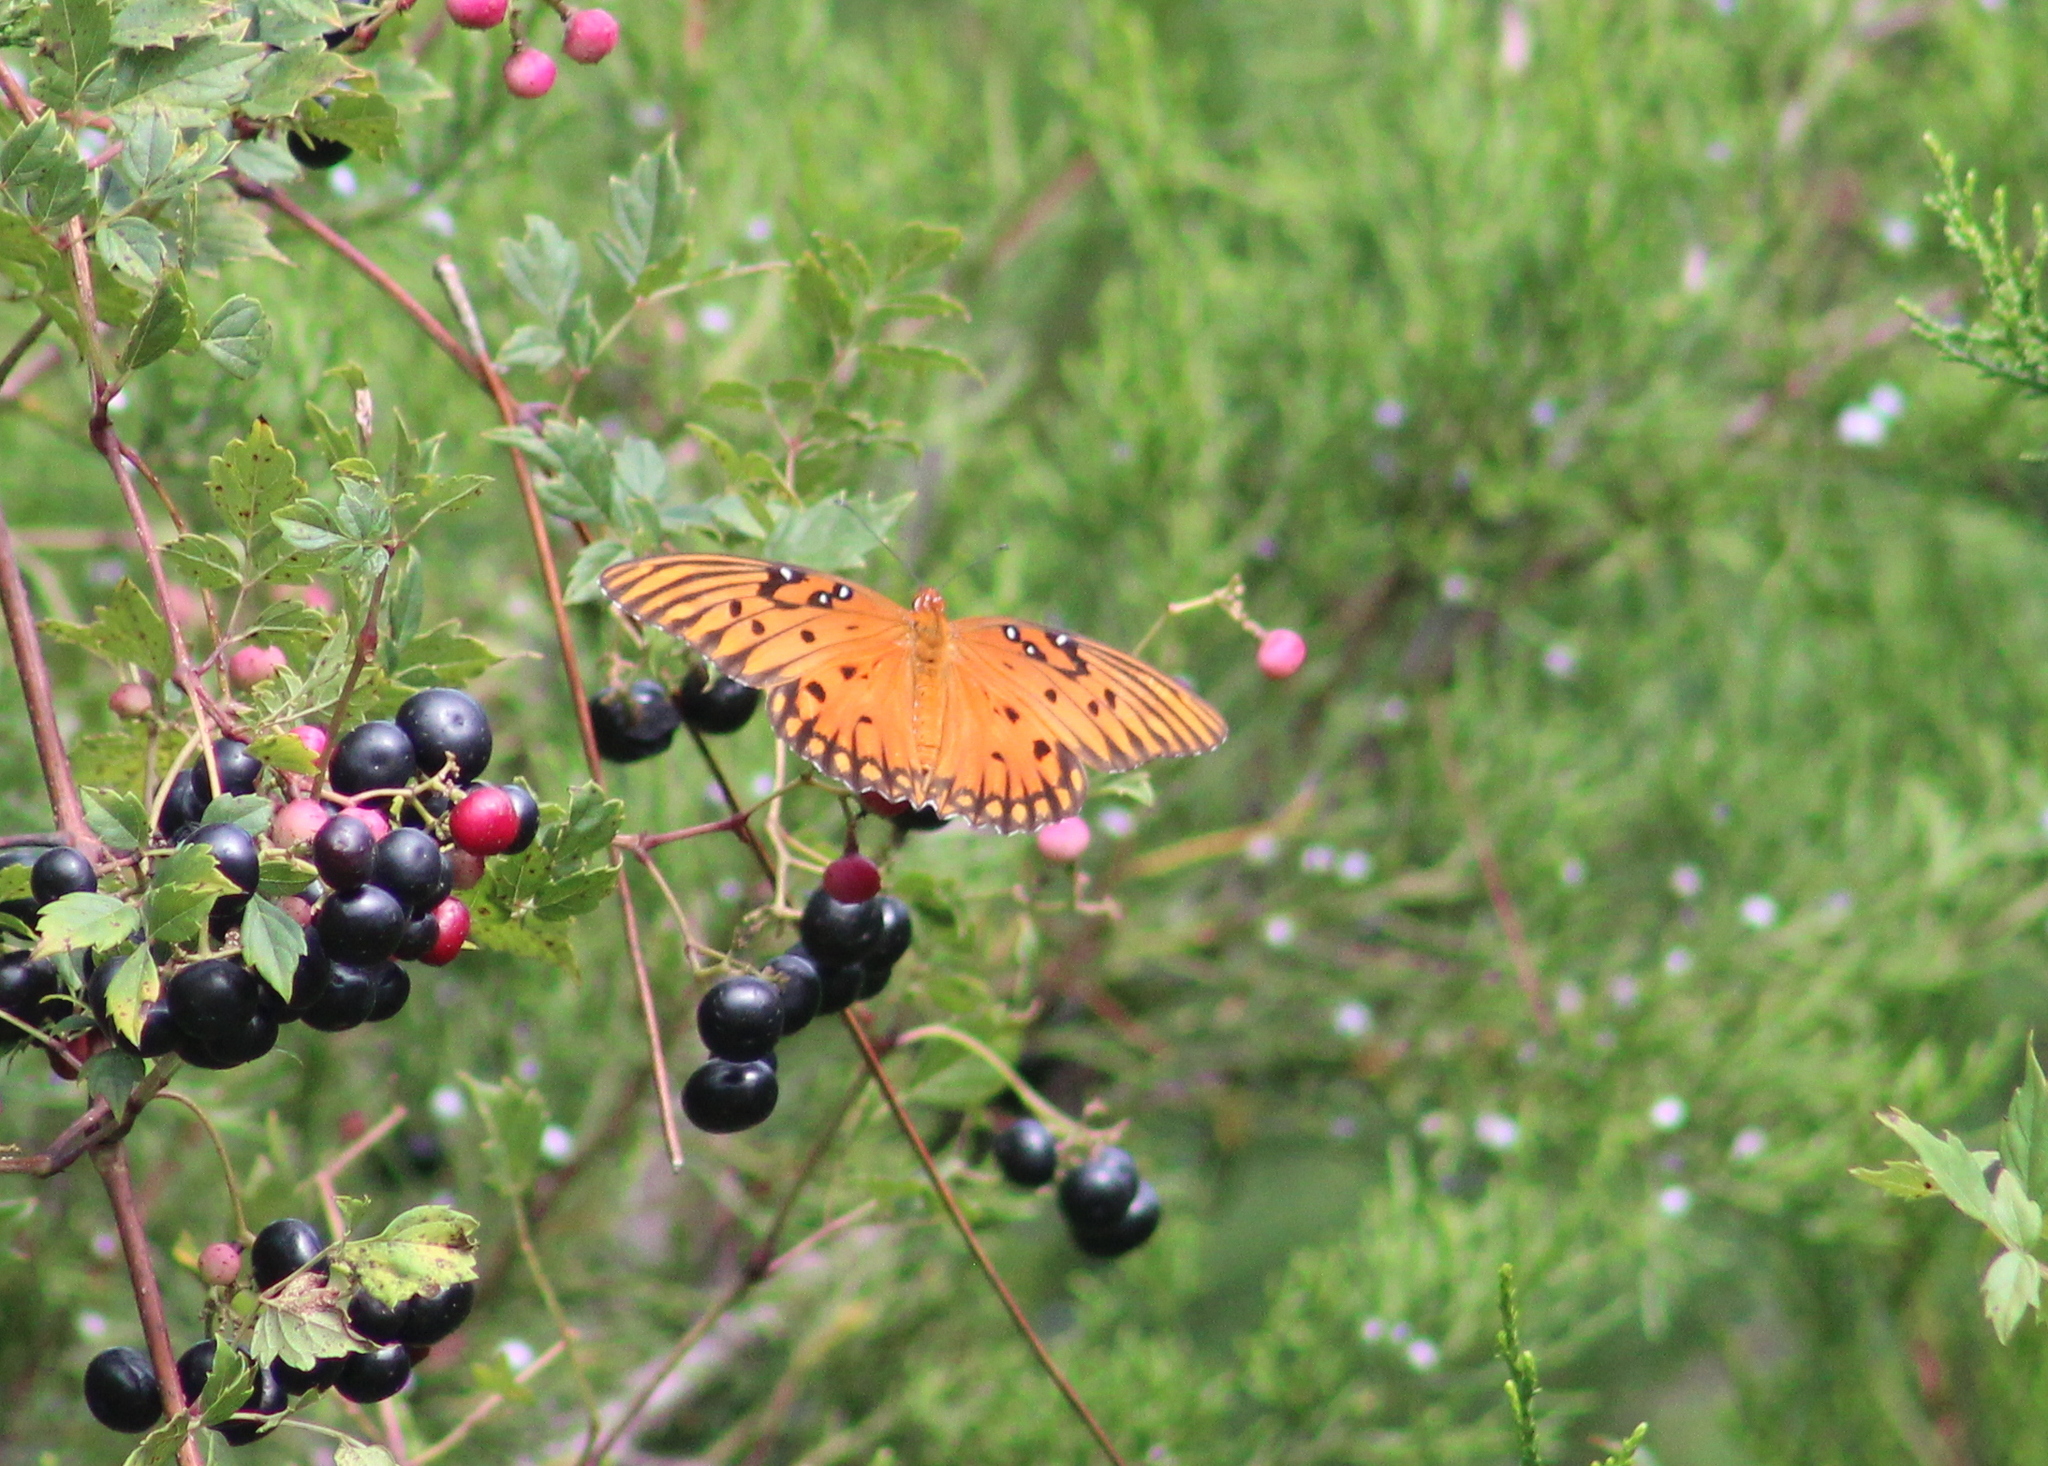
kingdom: Animalia
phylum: Arthropoda
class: Insecta
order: Lepidoptera
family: Nymphalidae
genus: Dione
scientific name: Dione vanillae
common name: Gulf fritillary
